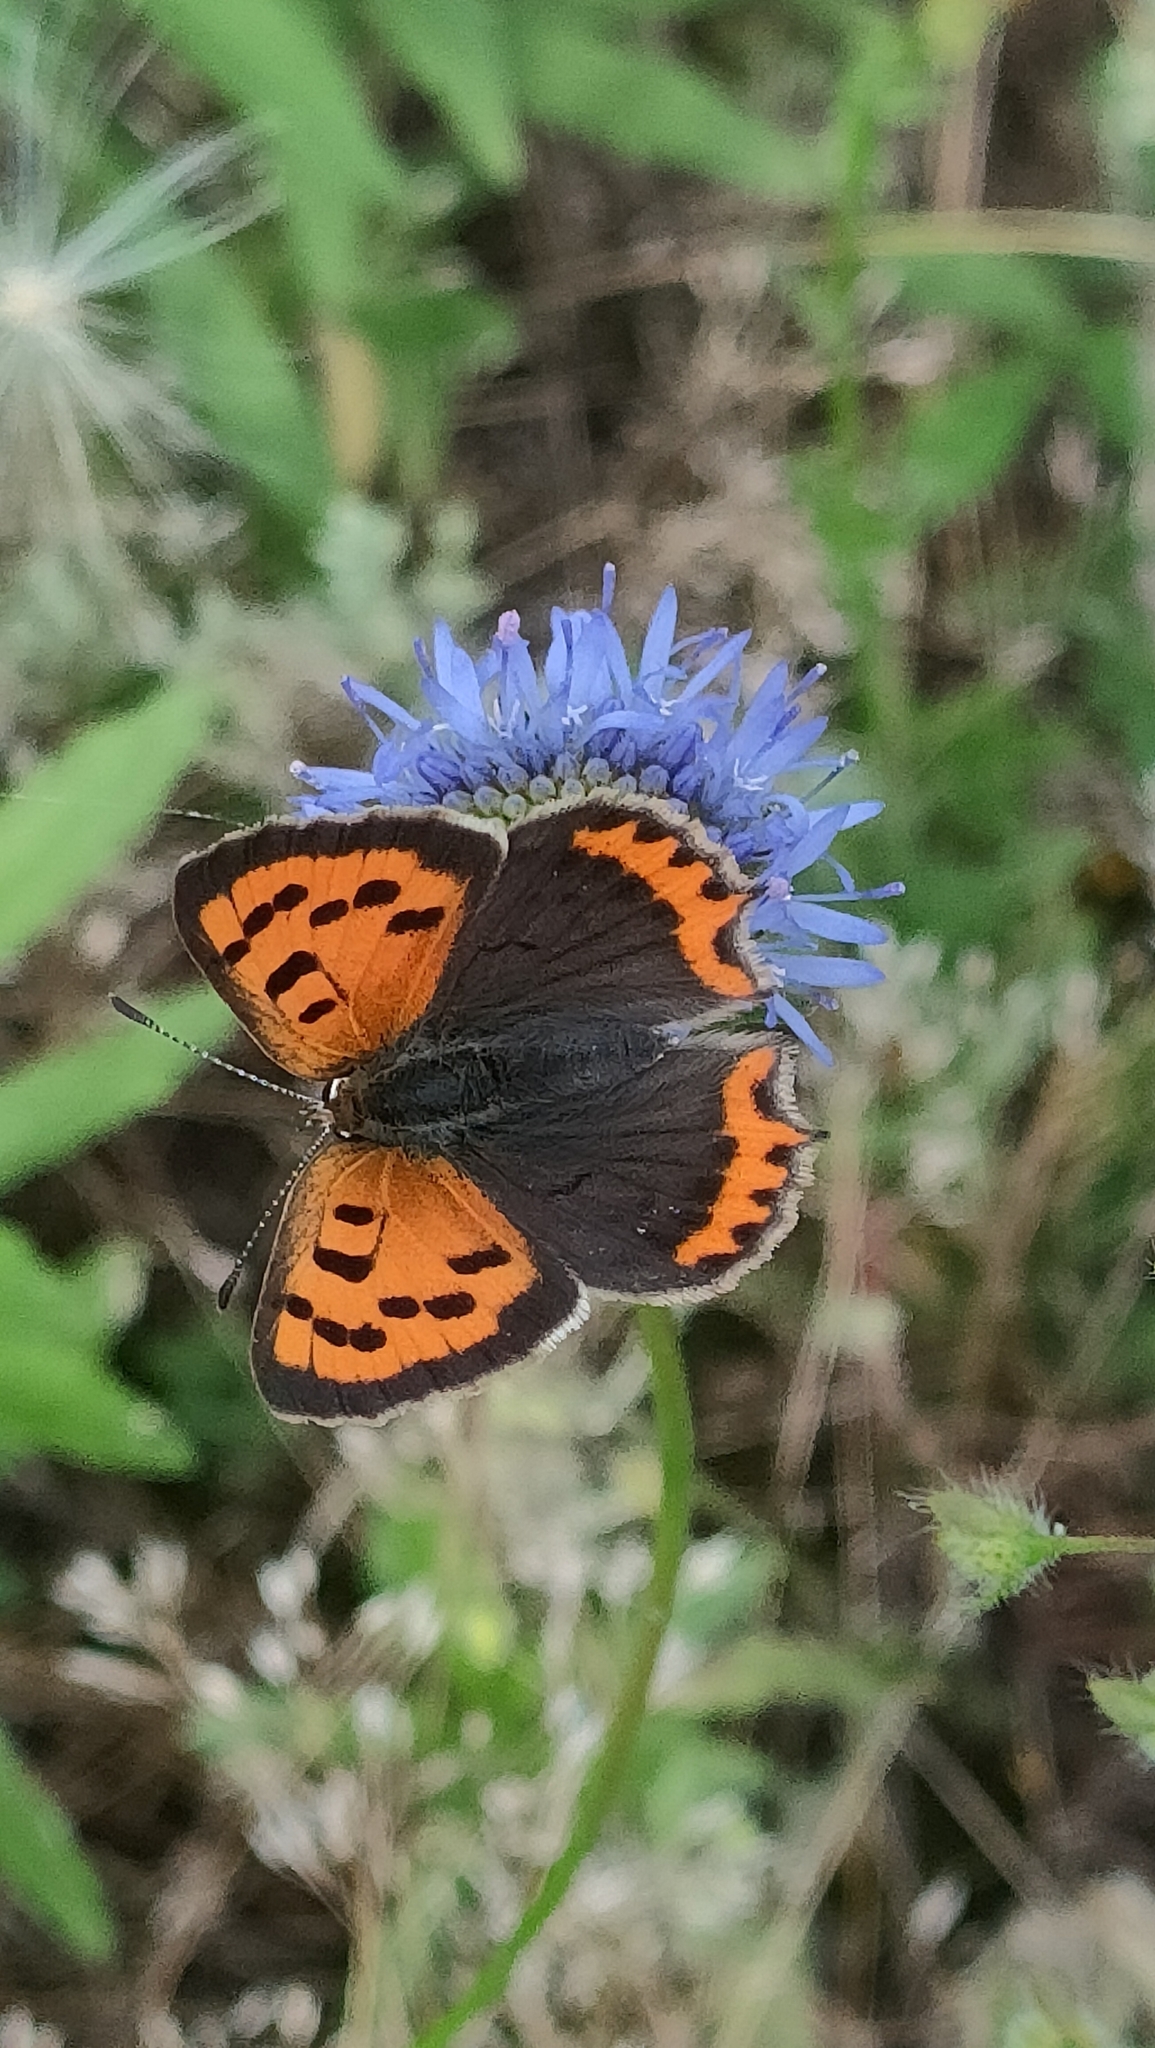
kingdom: Animalia
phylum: Arthropoda
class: Insecta
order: Lepidoptera
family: Lycaenidae
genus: Lycaena
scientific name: Lycaena phlaeas
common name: Small copper
